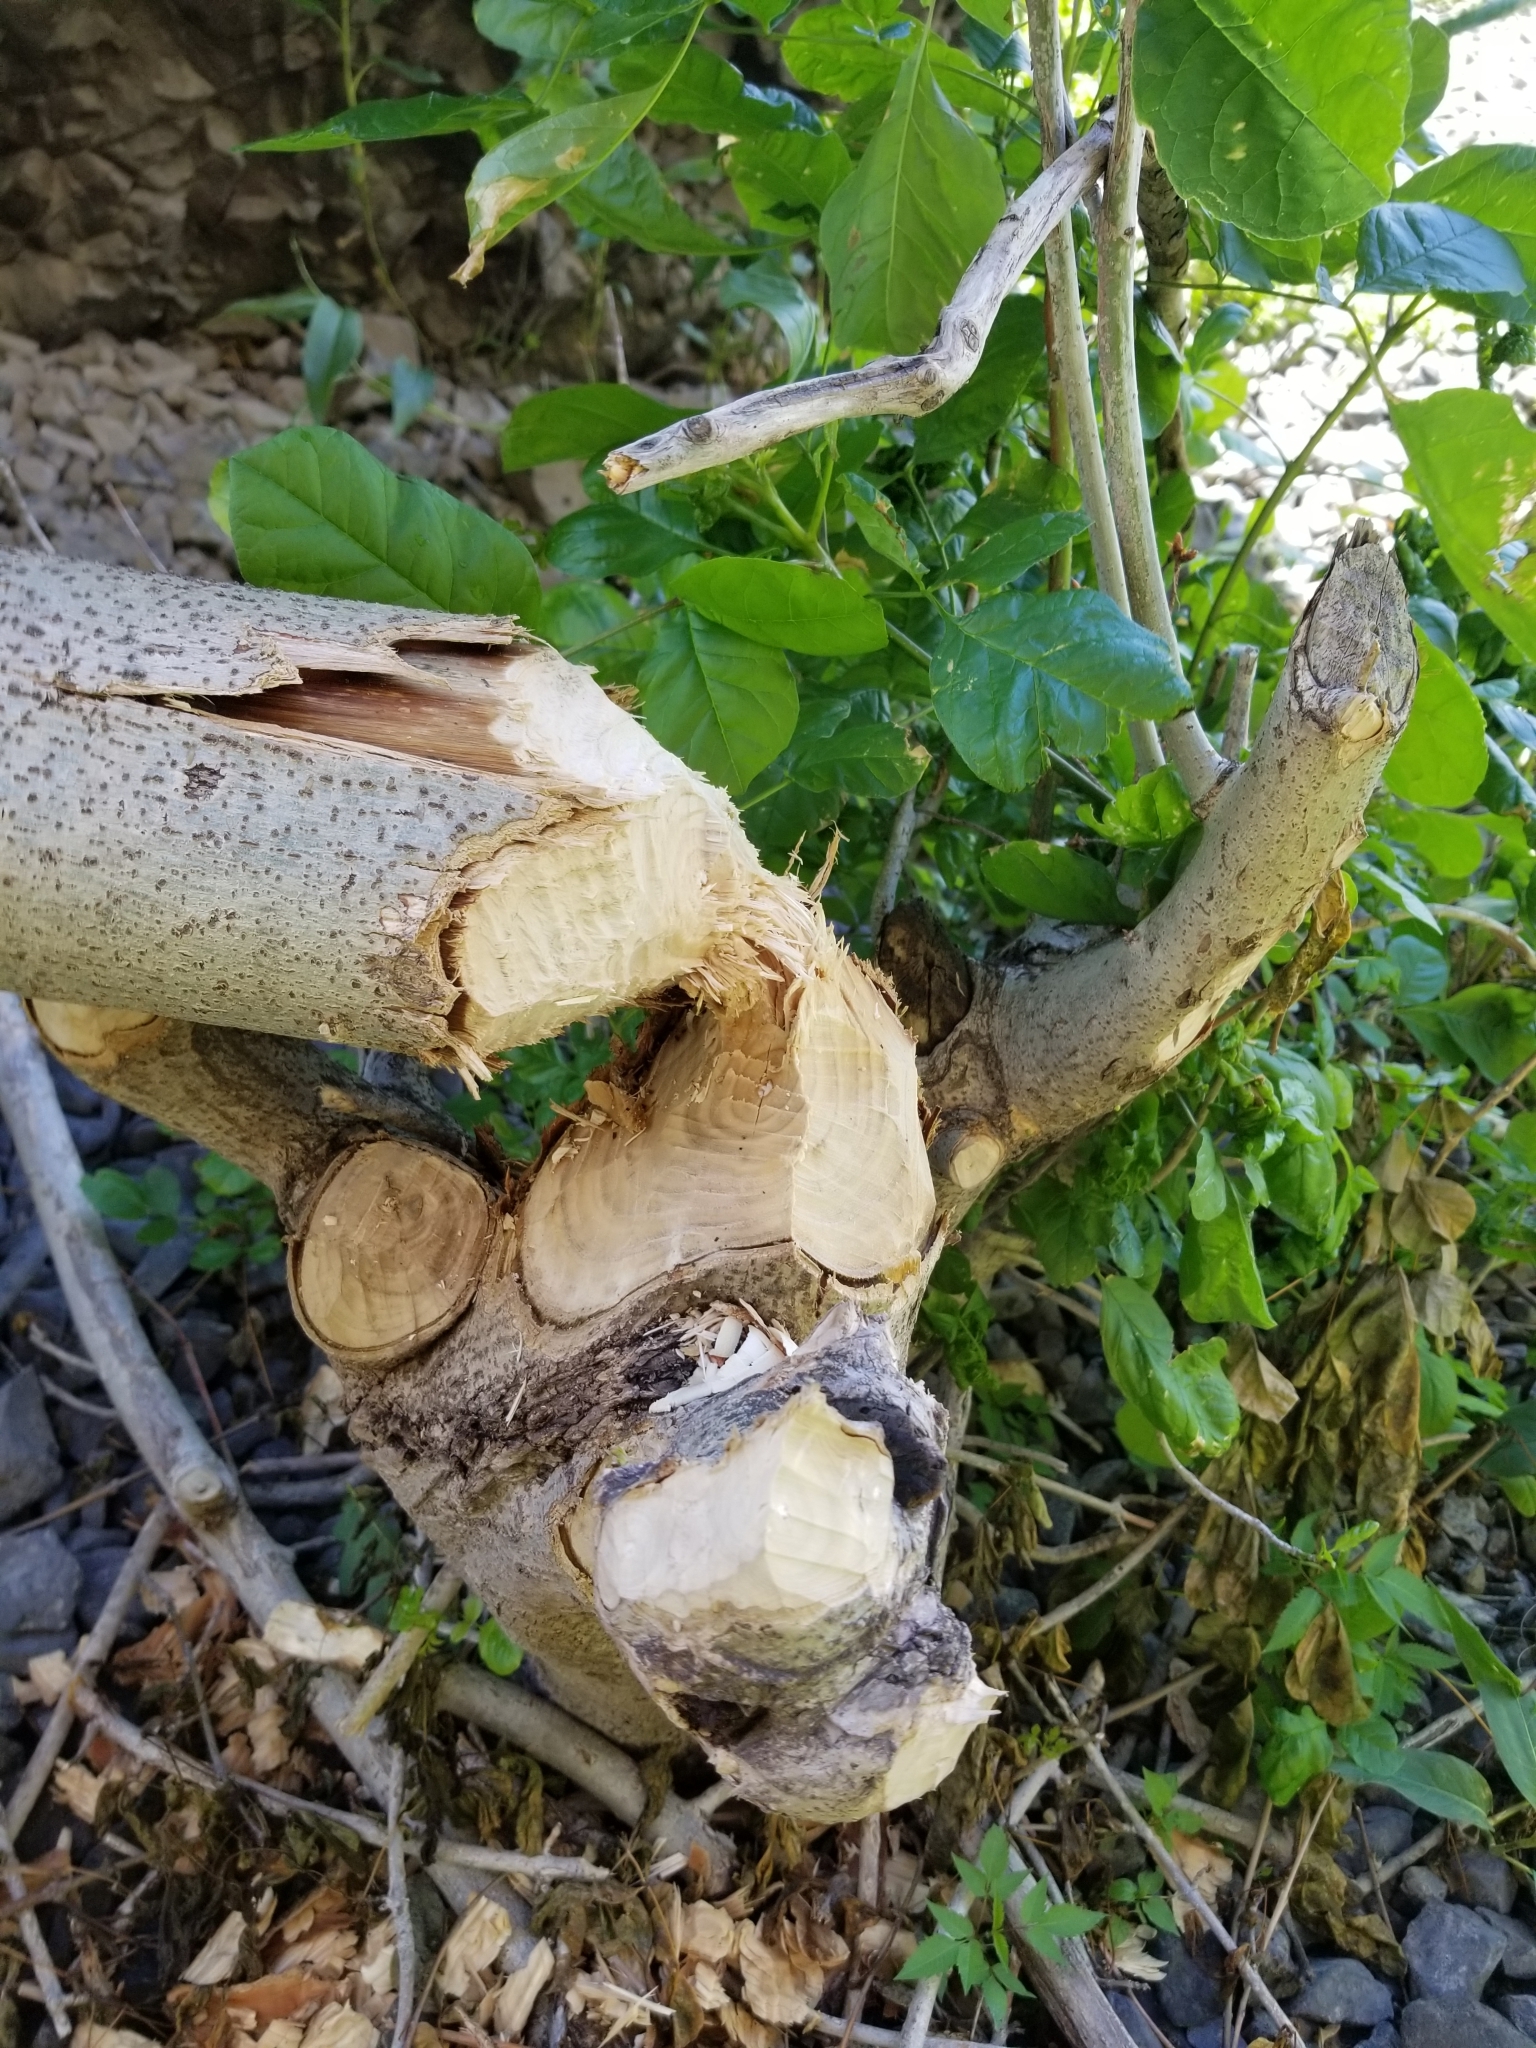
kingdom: Animalia
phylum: Chordata
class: Mammalia
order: Rodentia
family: Castoridae
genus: Castor
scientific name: Castor canadensis
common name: American beaver
